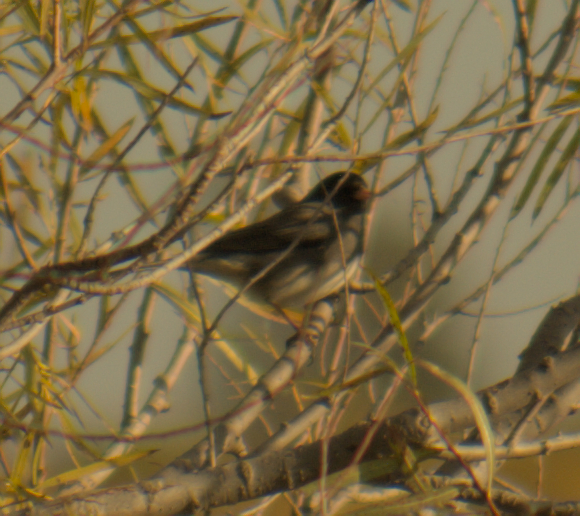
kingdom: Animalia
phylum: Chordata
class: Aves
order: Passeriformes
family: Passerellidae
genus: Junco
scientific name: Junco hyemalis
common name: Dark-eyed junco
